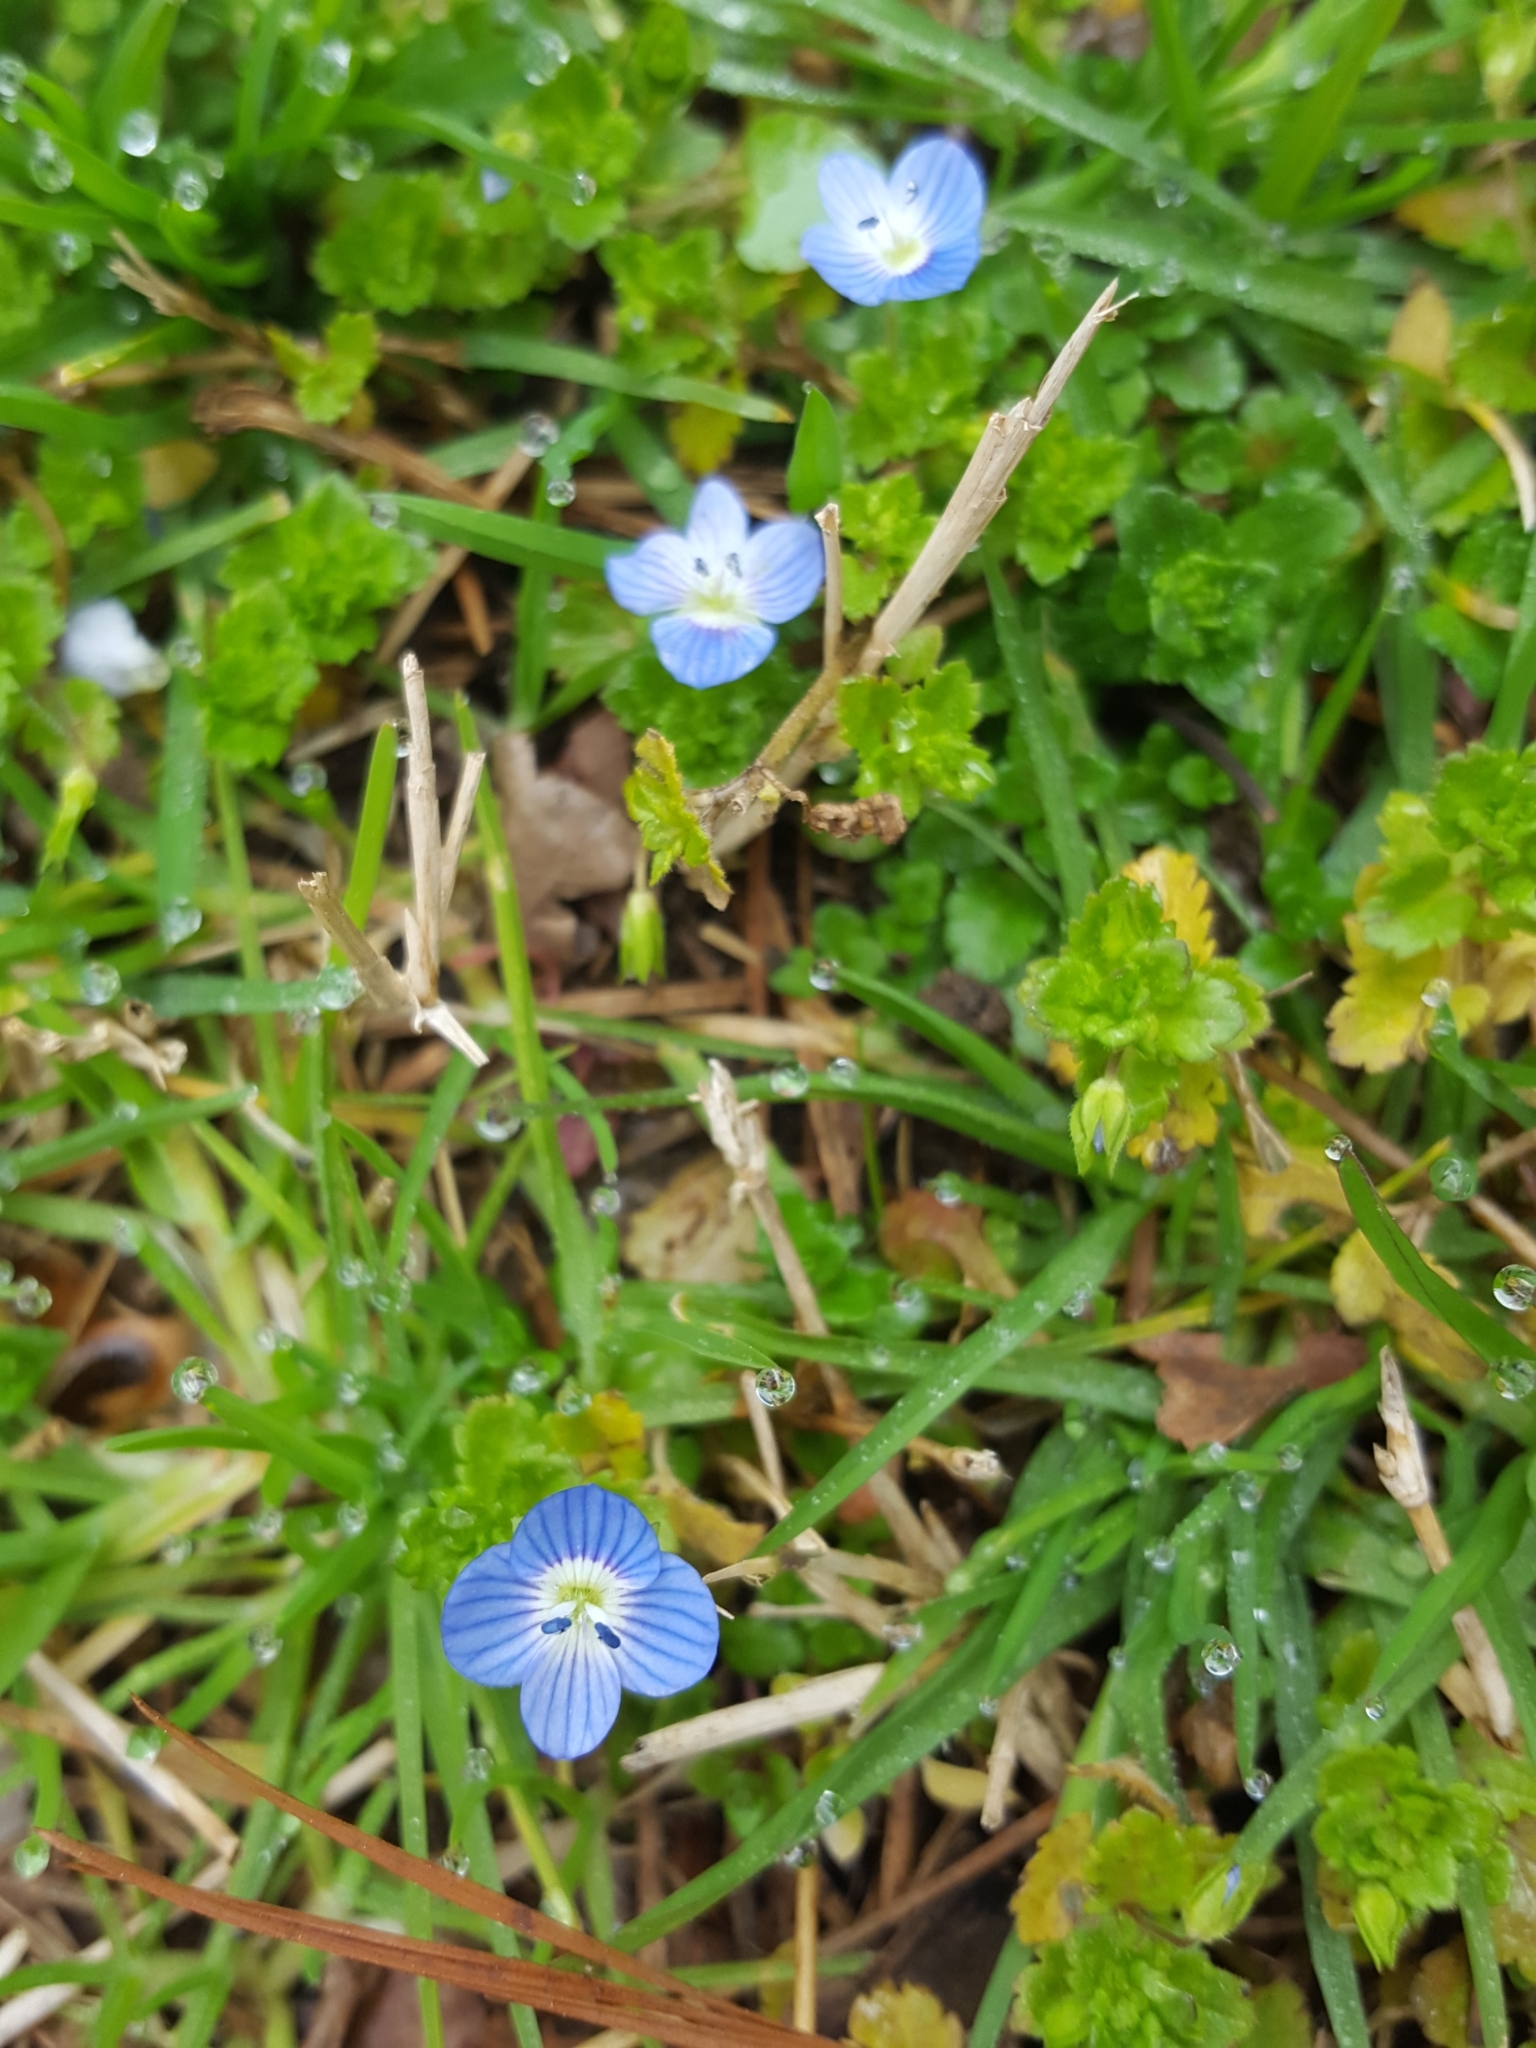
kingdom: Plantae
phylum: Tracheophyta
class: Magnoliopsida
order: Lamiales
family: Plantaginaceae
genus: Veronica
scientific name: Veronica persica
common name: Common field-speedwell
